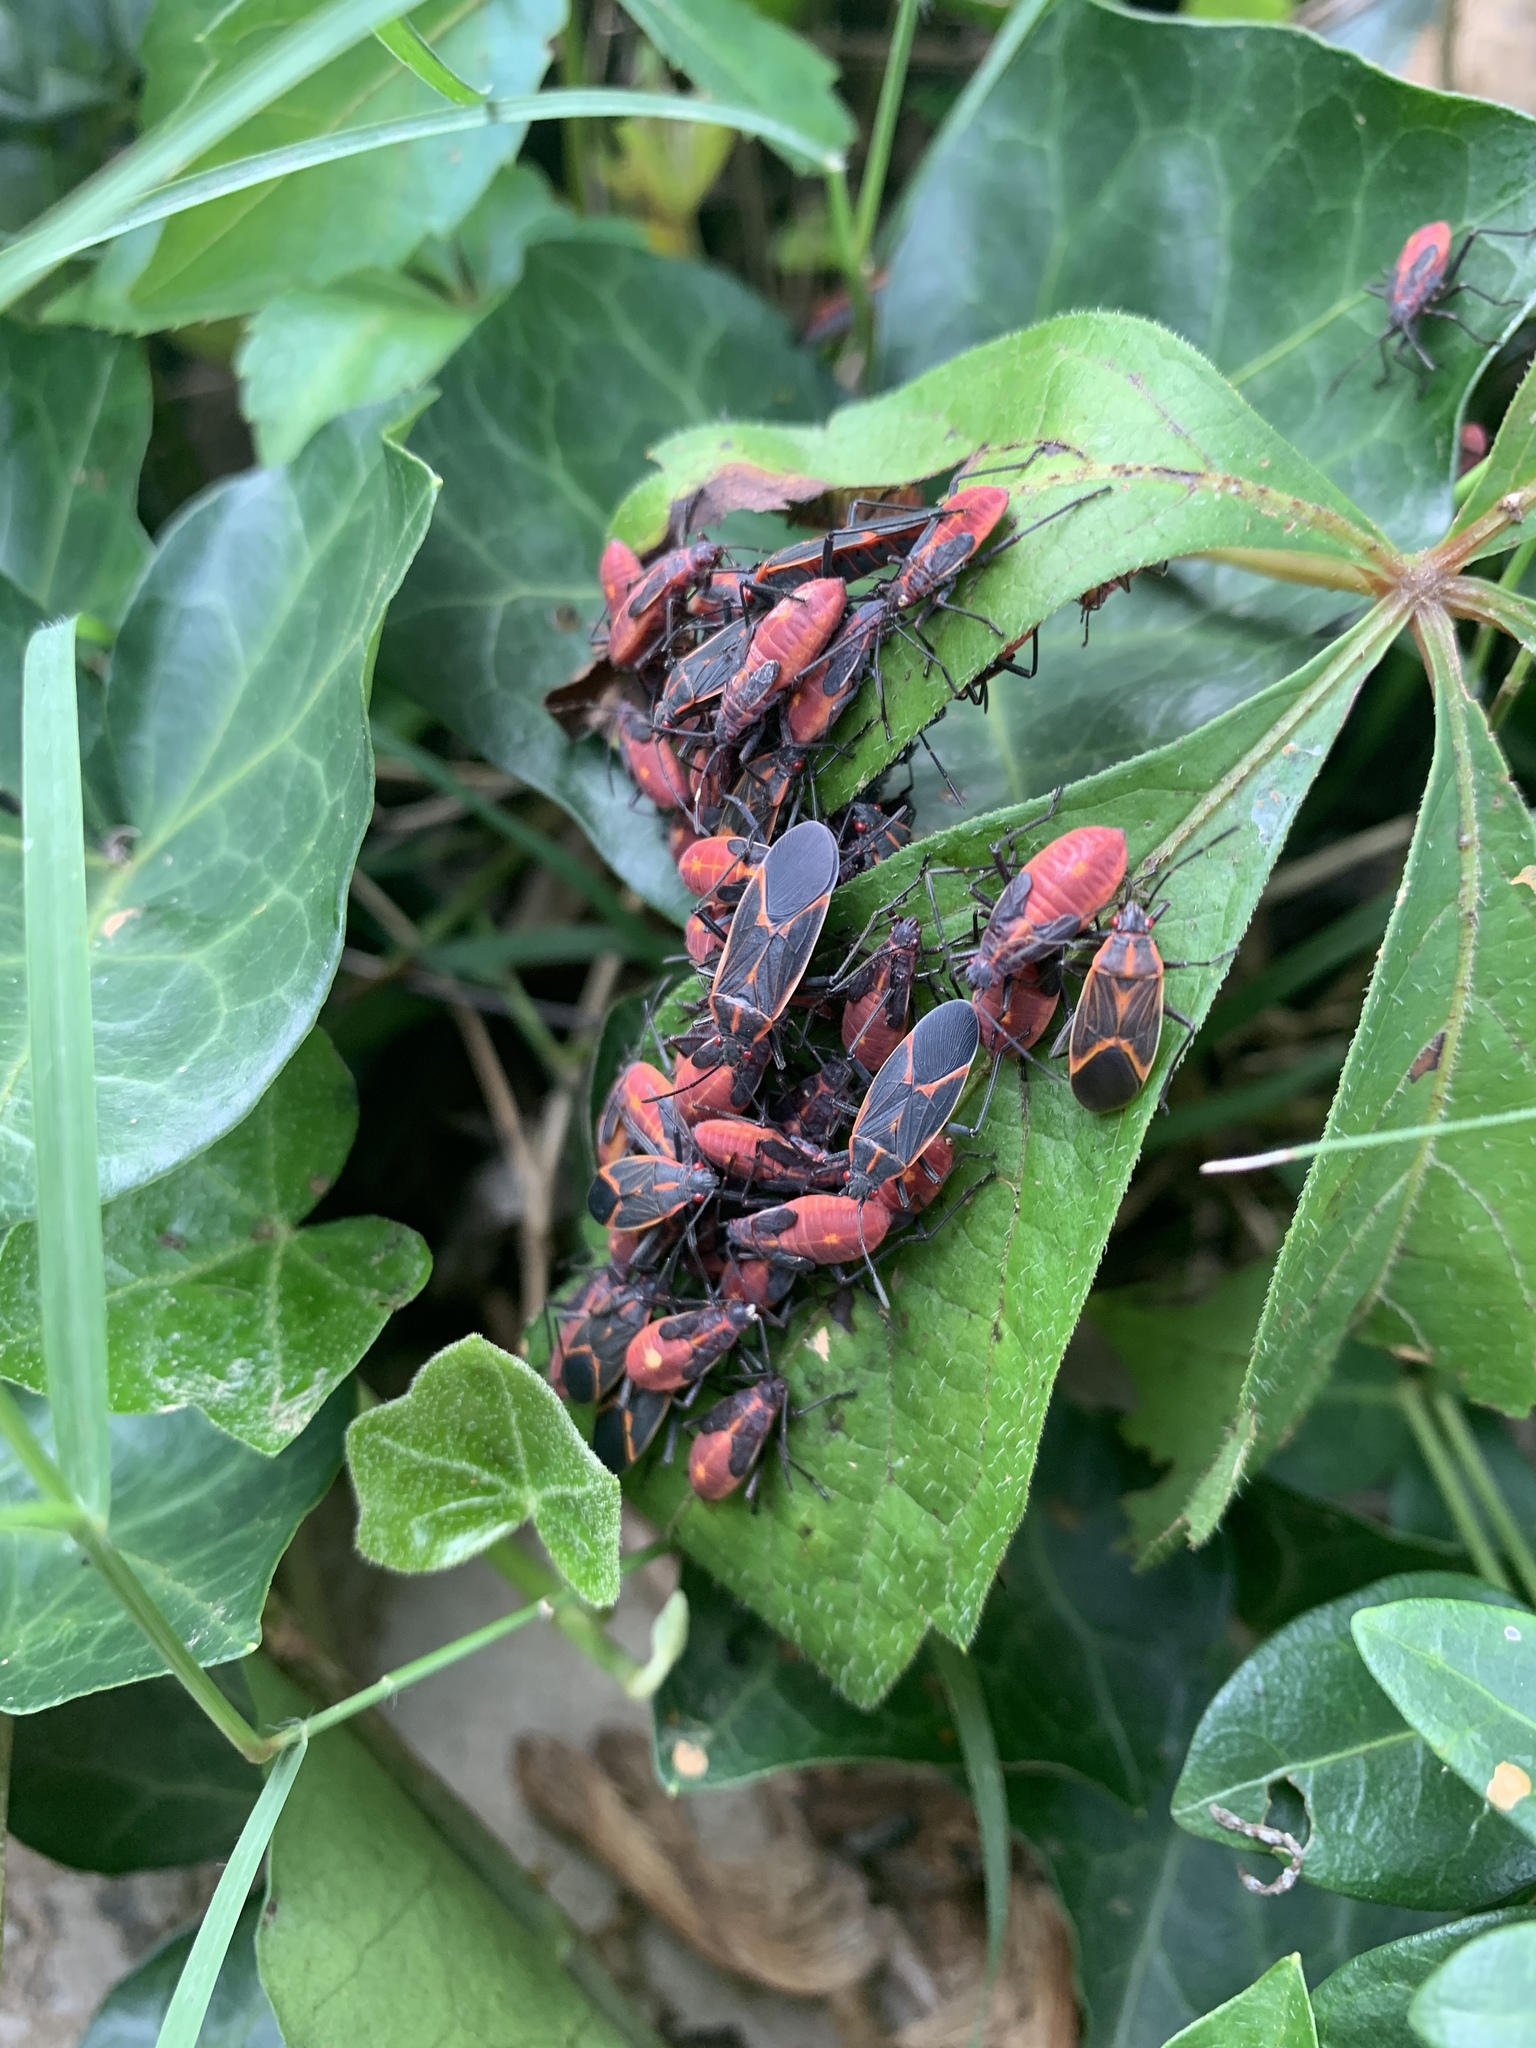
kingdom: Animalia
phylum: Arthropoda
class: Insecta
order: Hemiptera
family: Rhopalidae
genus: Boisea
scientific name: Boisea trivittata
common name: Boxelder bug
